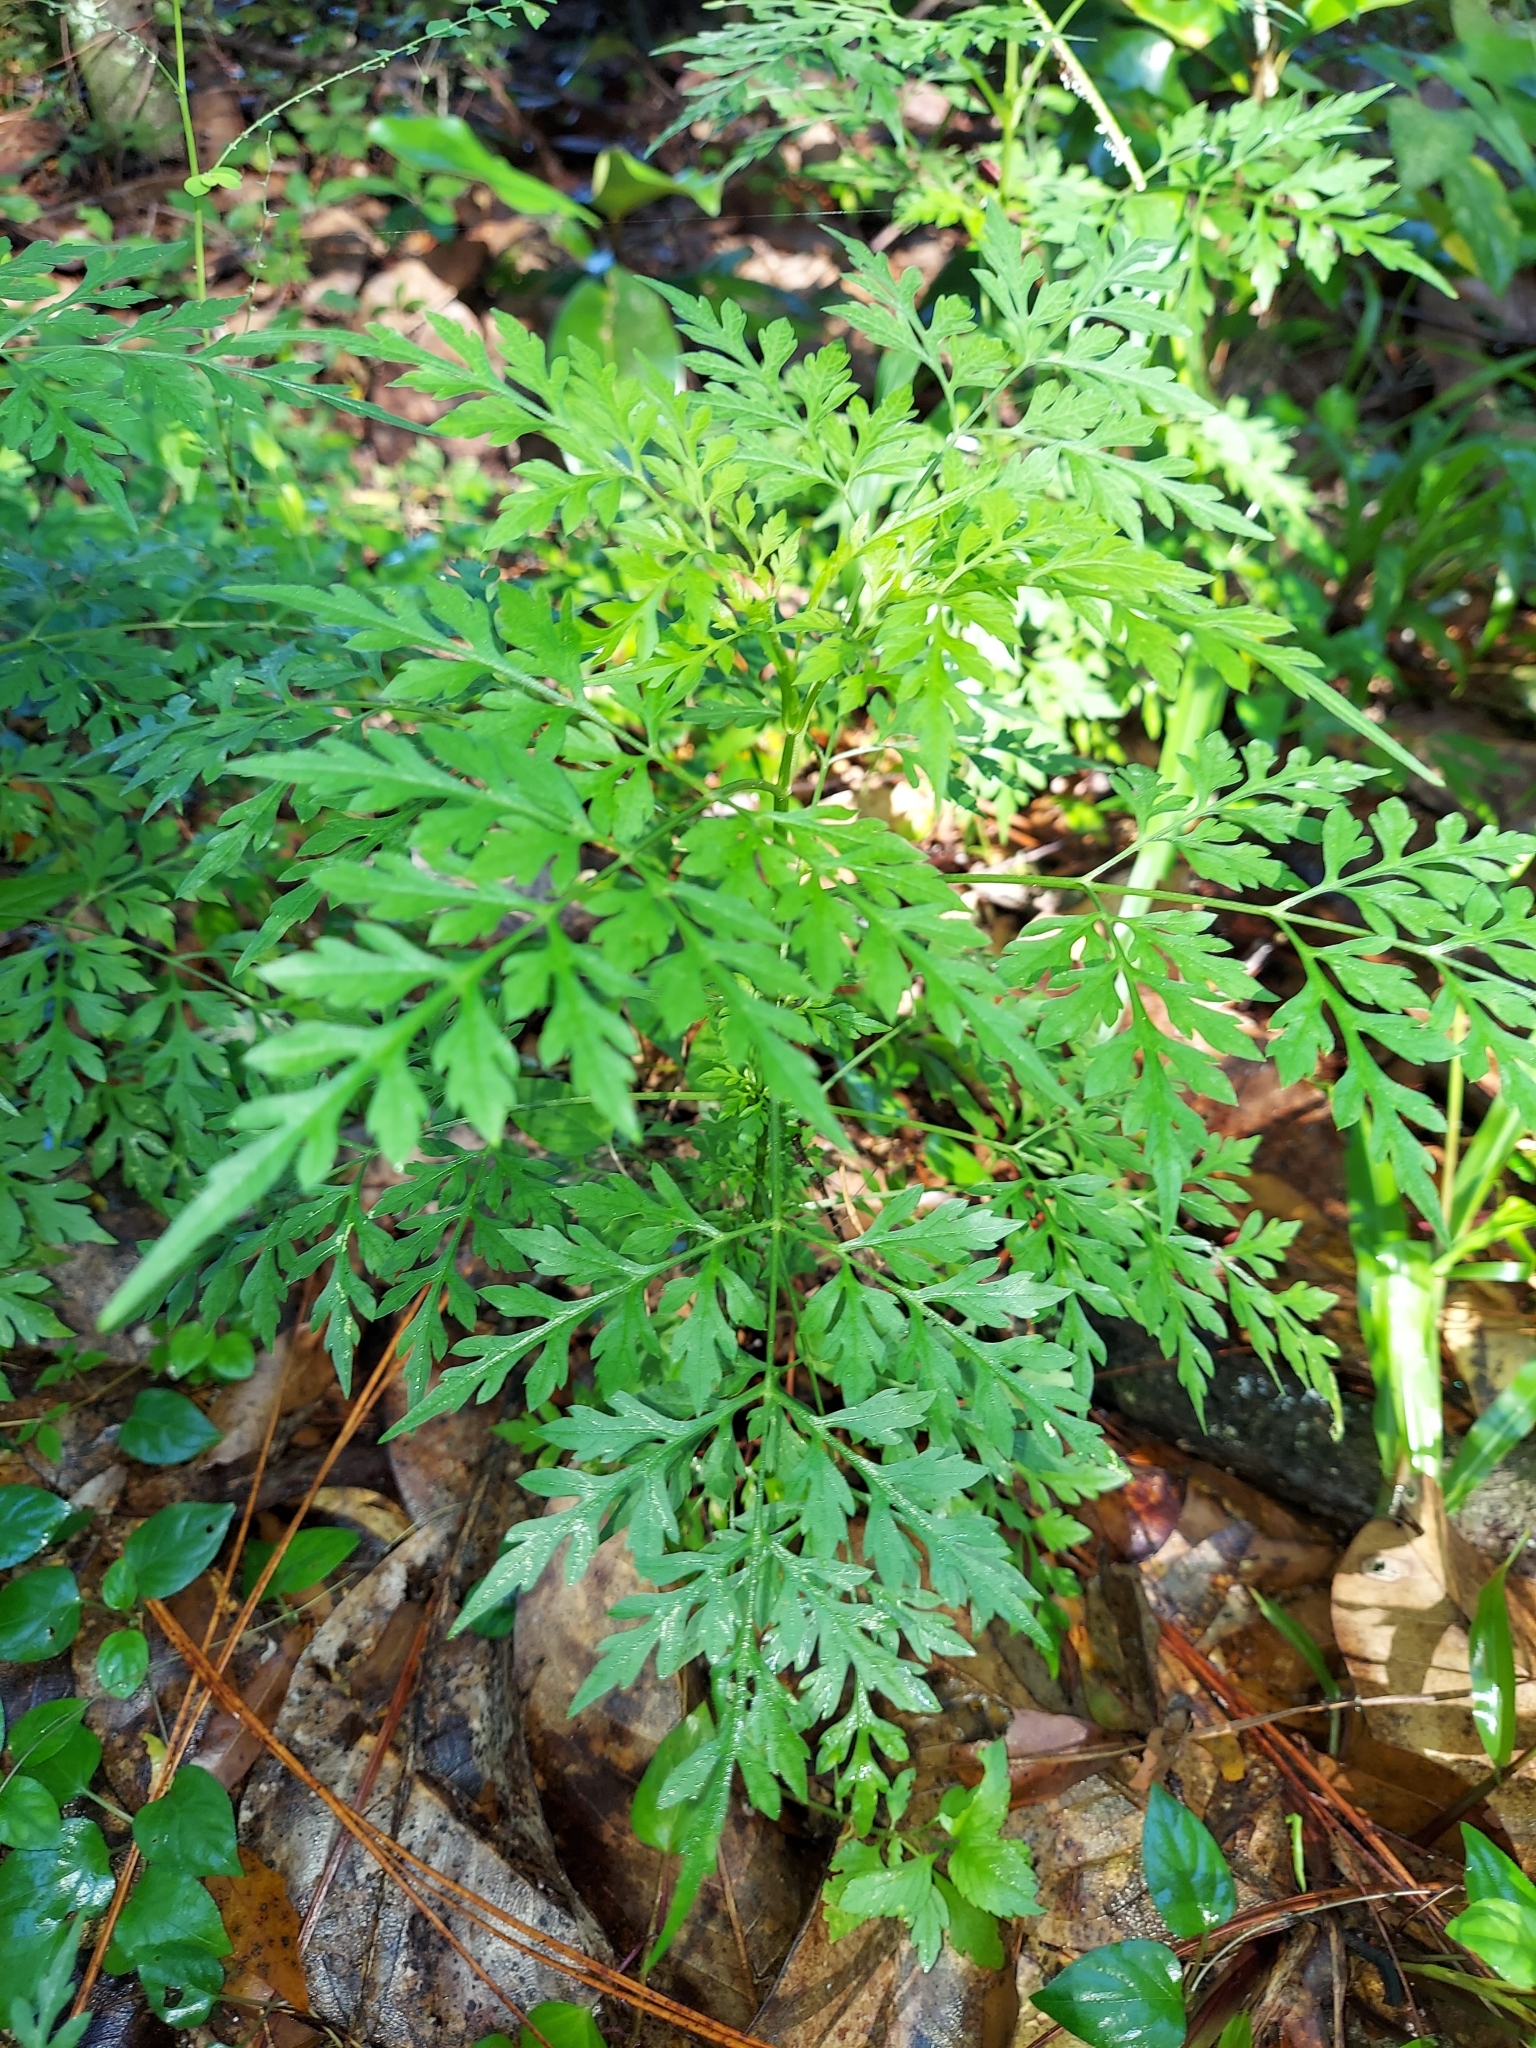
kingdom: Plantae
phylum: Tracheophyta
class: Magnoliopsida
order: Asterales
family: Asteraceae
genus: Bidens
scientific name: Bidens bipinnata
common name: Spanish-needles
